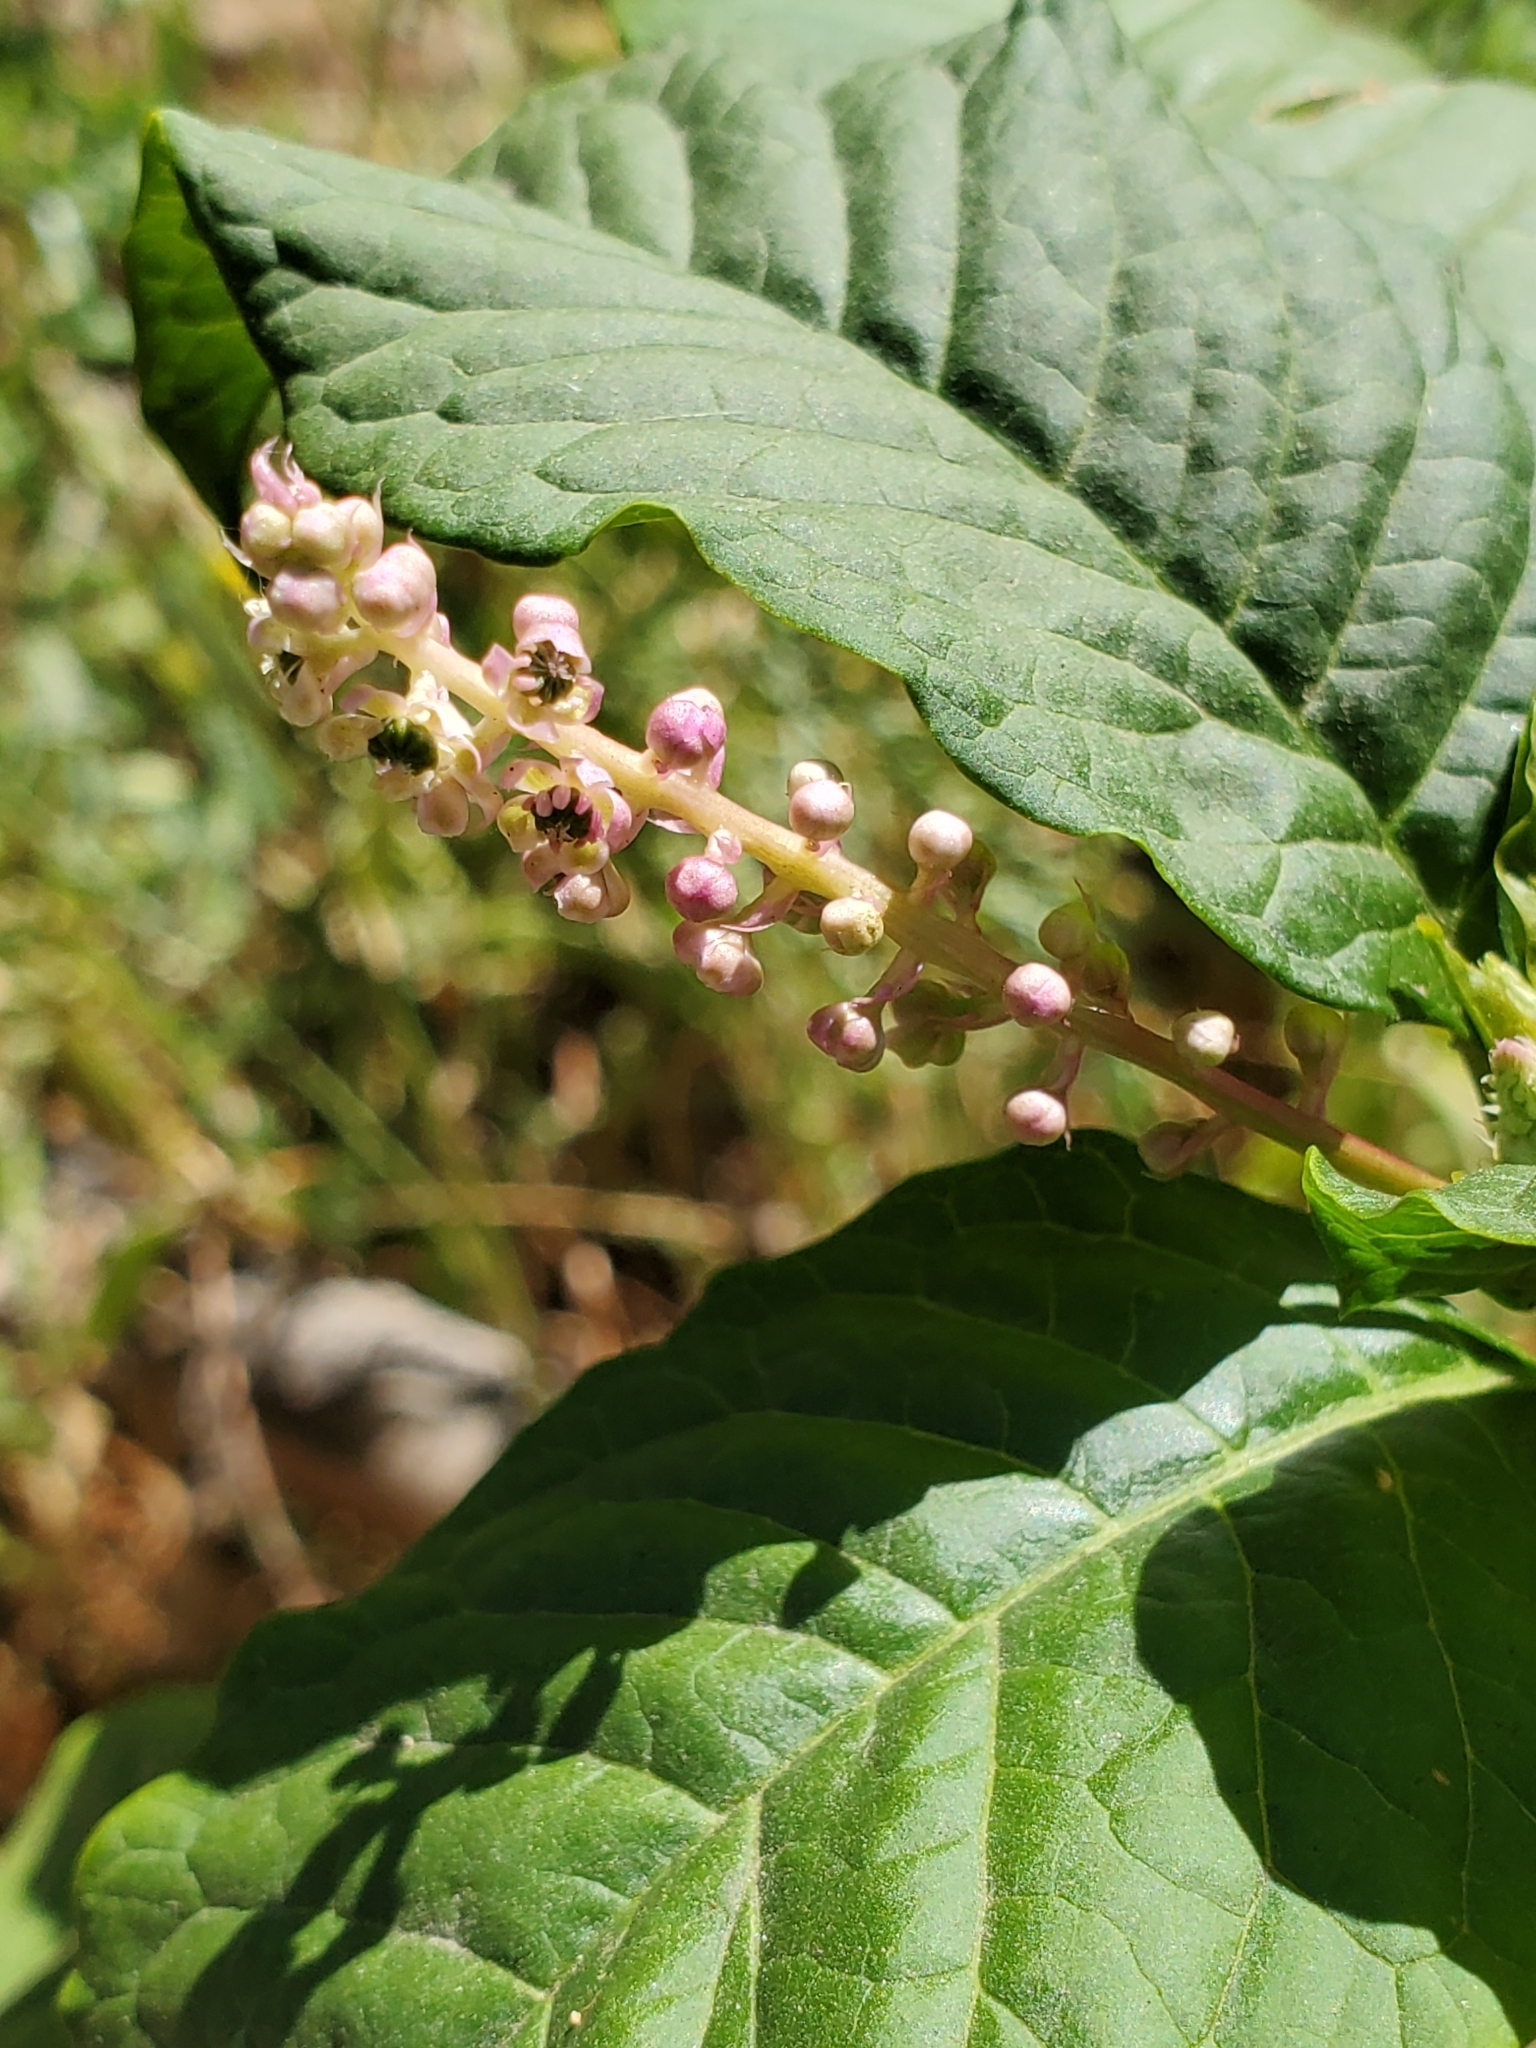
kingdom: Plantae
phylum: Tracheophyta
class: Magnoliopsida
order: Caryophyllales
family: Phytolaccaceae
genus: Phytolacca
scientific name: Phytolacca americana
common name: American pokeweed
